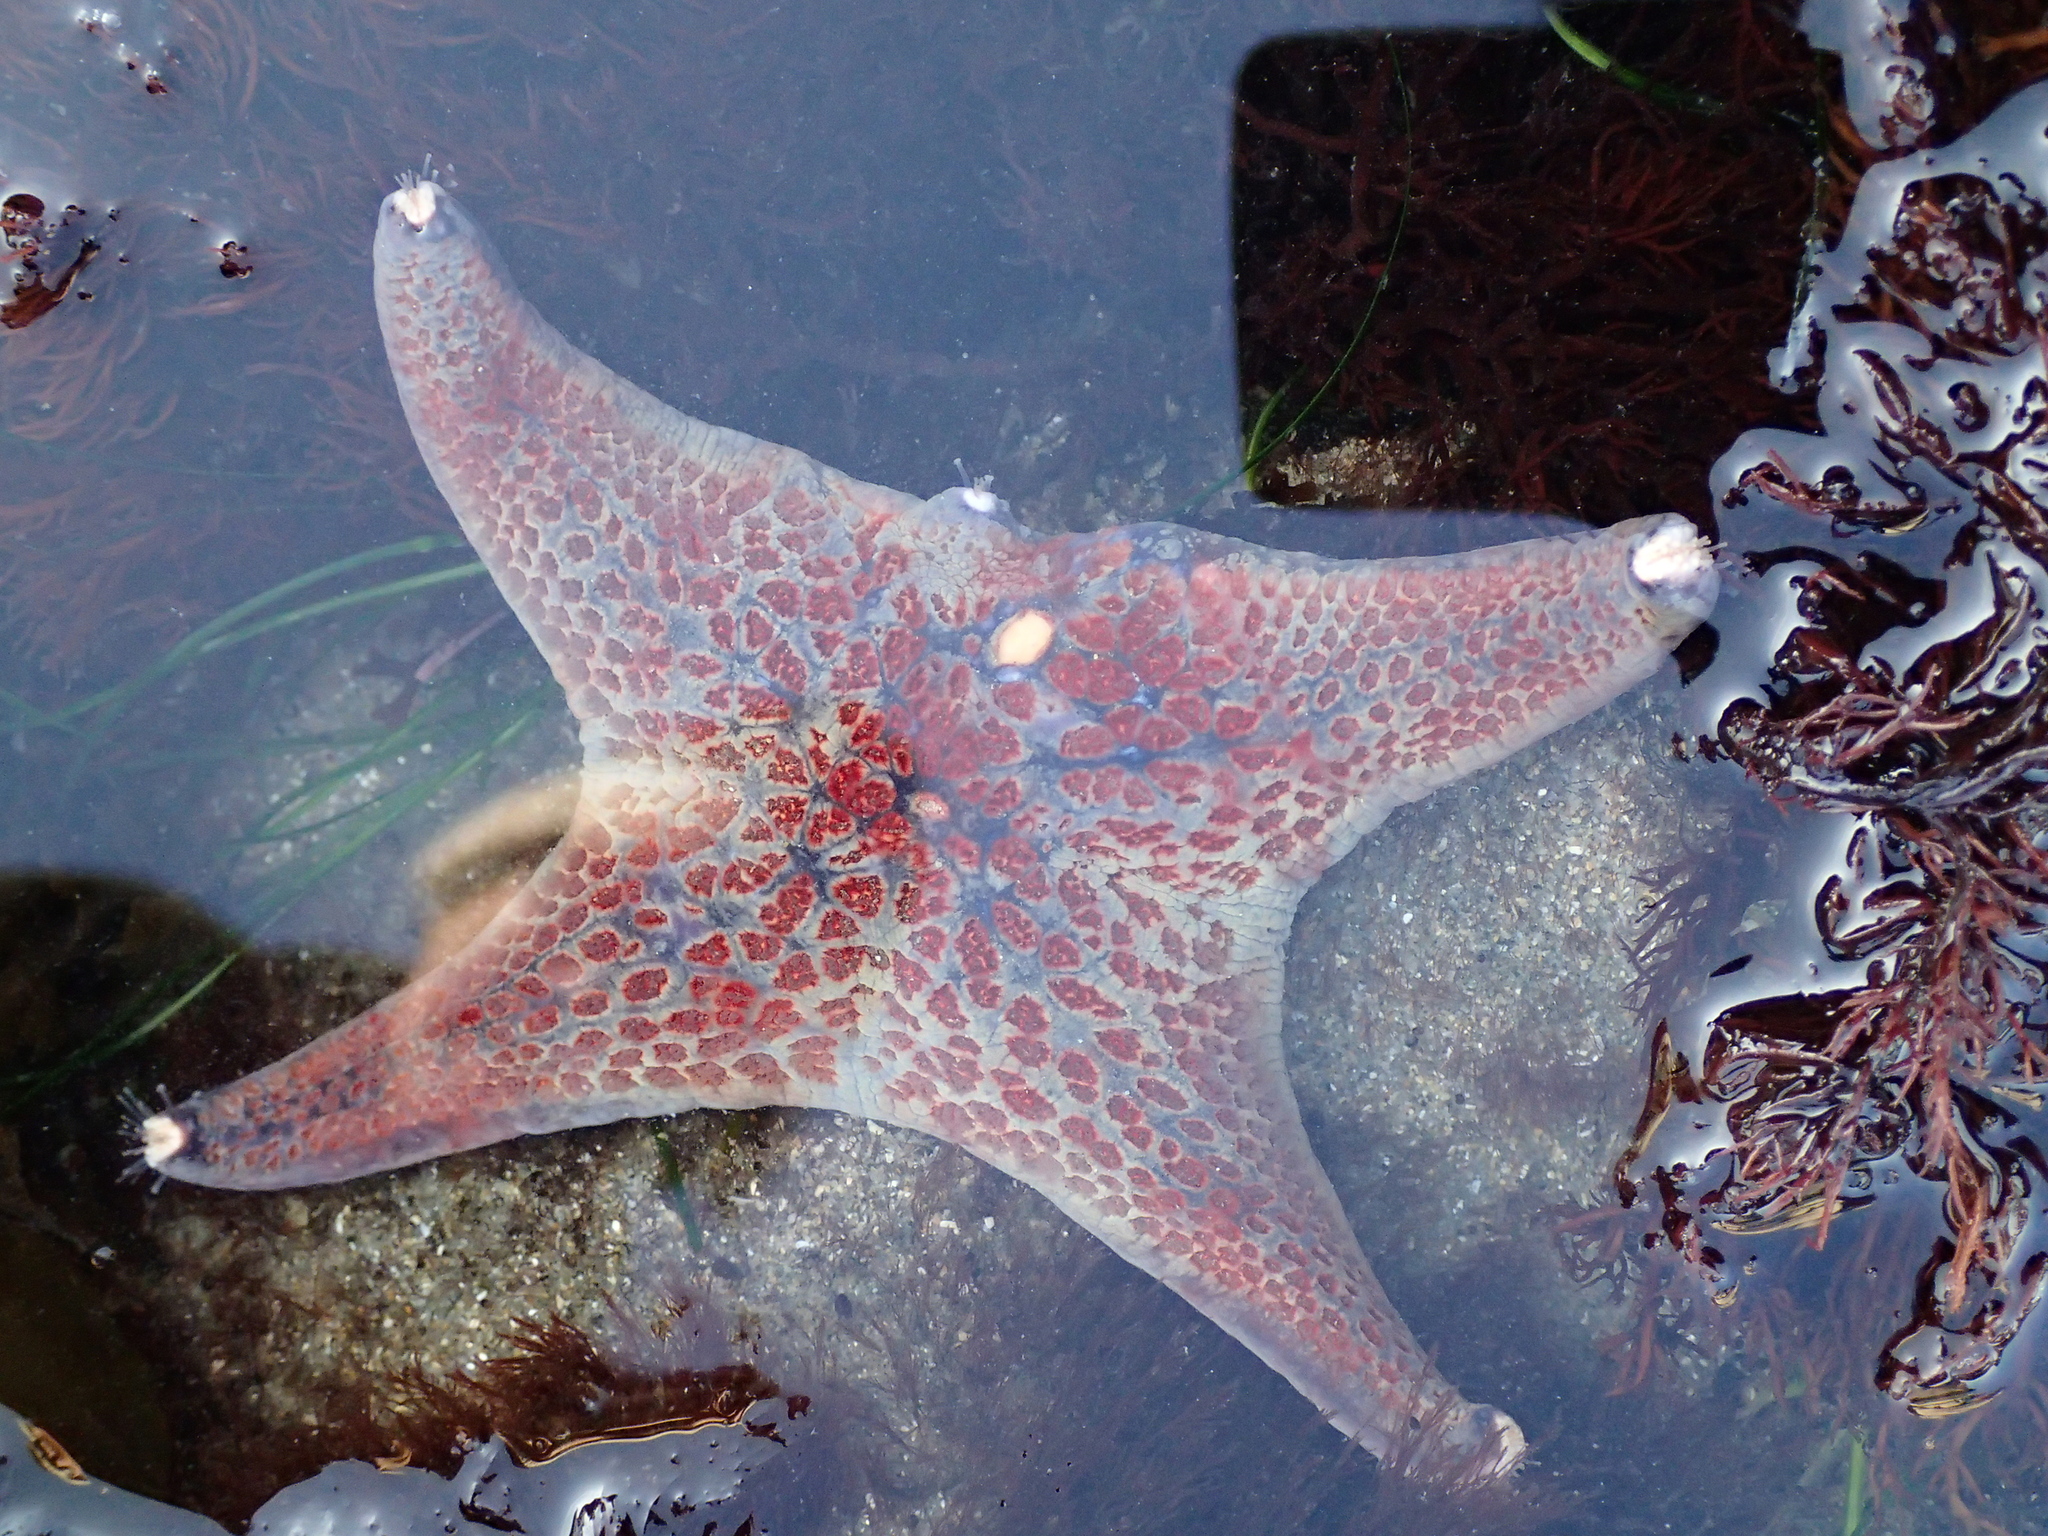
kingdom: Animalia
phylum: Echinodermata
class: Asteroidea
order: Valvatida
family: Asteropseidae
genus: Dermasterias
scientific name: Dermasterias imbricata
